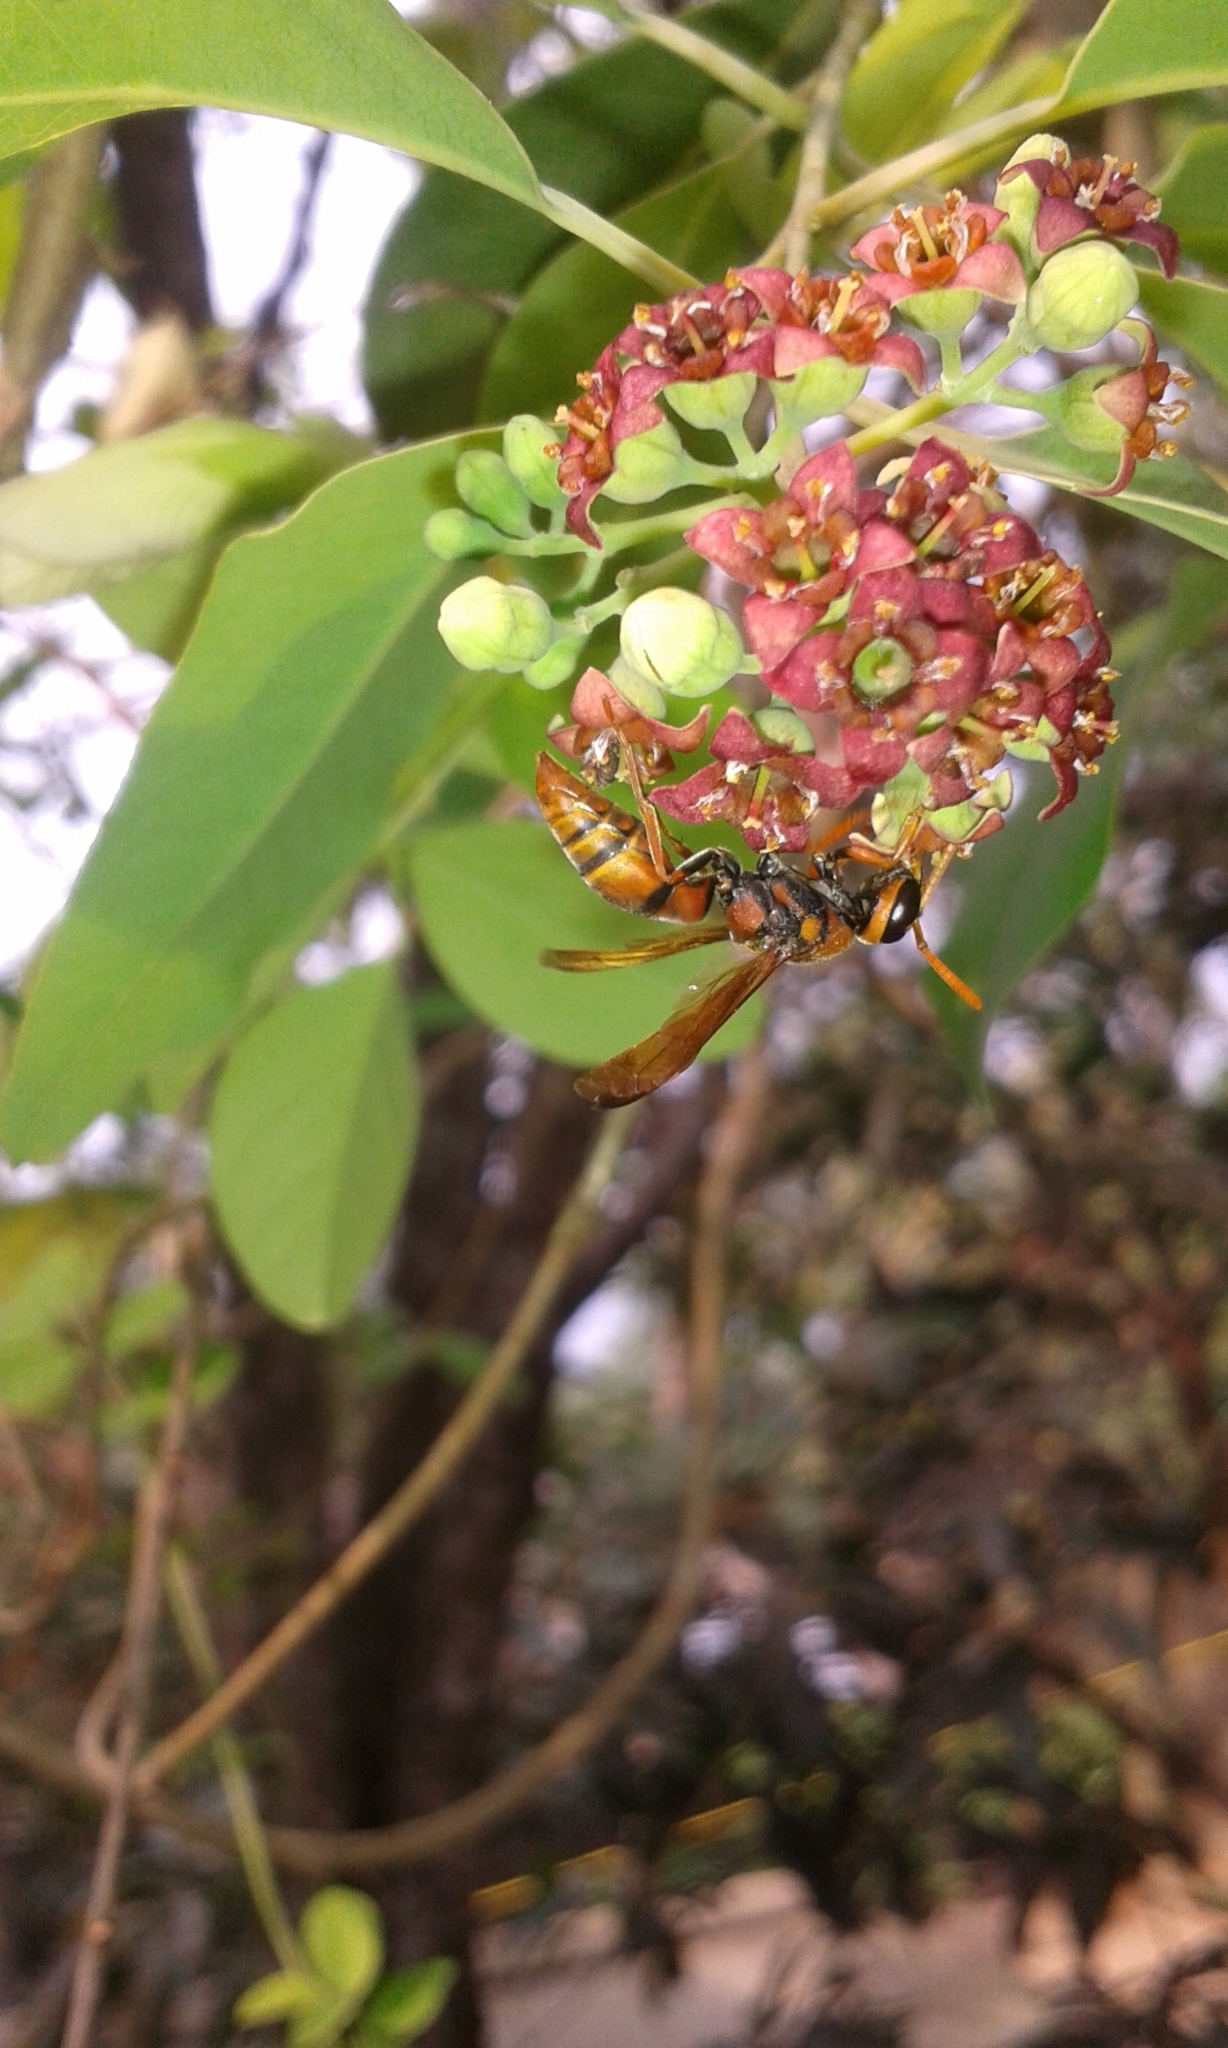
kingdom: Animalia
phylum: Arthropoda
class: Insecta
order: Hymenoptera
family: Eumenidae
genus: Antodynerus
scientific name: Antodynerus limbatus
